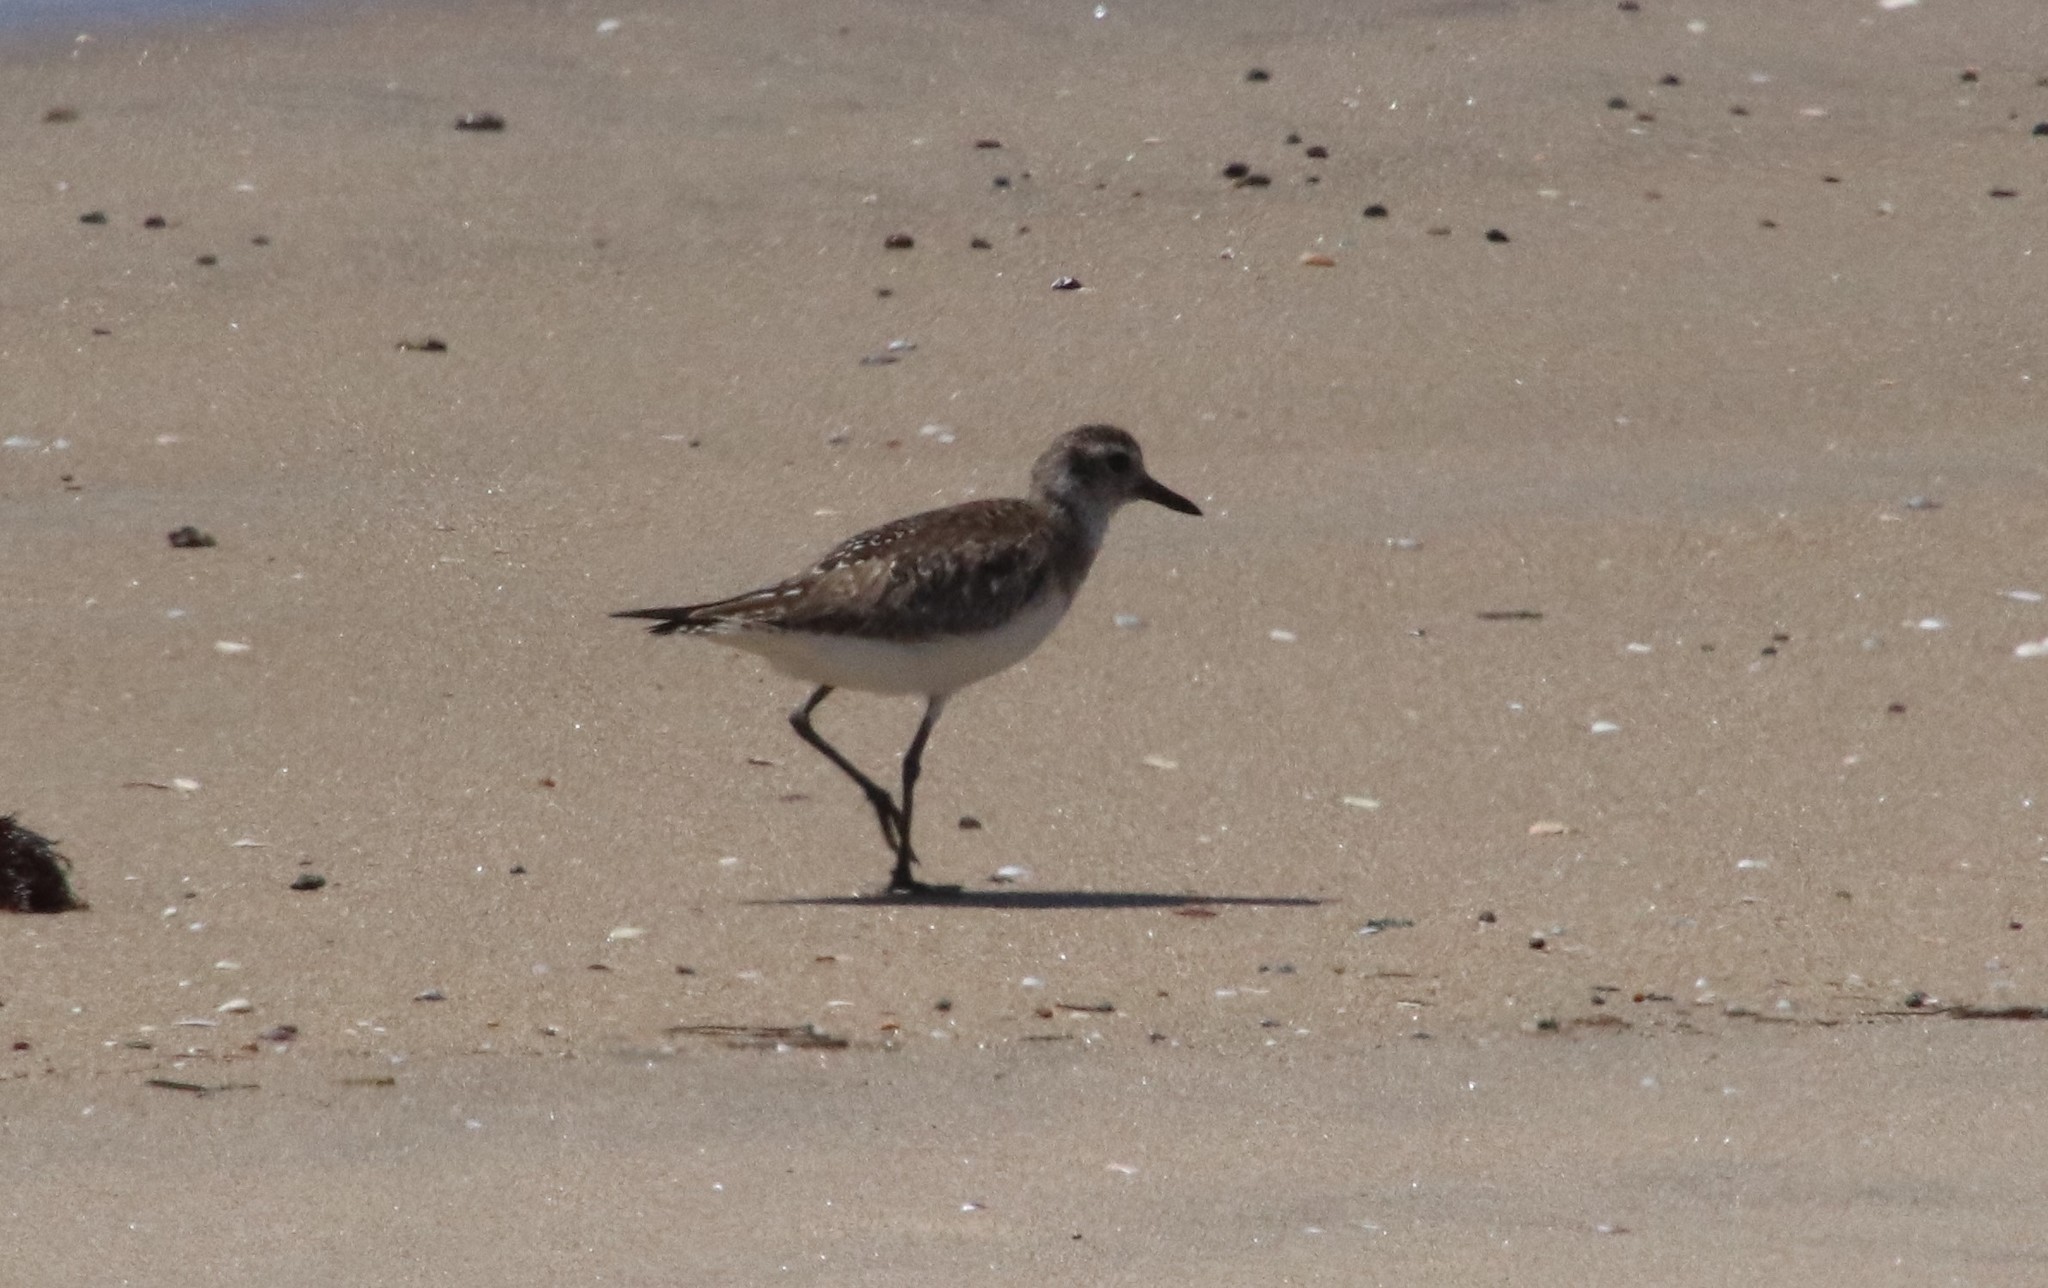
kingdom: Animalia
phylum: Chordata
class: Aves
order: Charadriiformes
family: Charadriidae
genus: Pluvialis
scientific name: Pluvialis squatarola
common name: Grey plover
